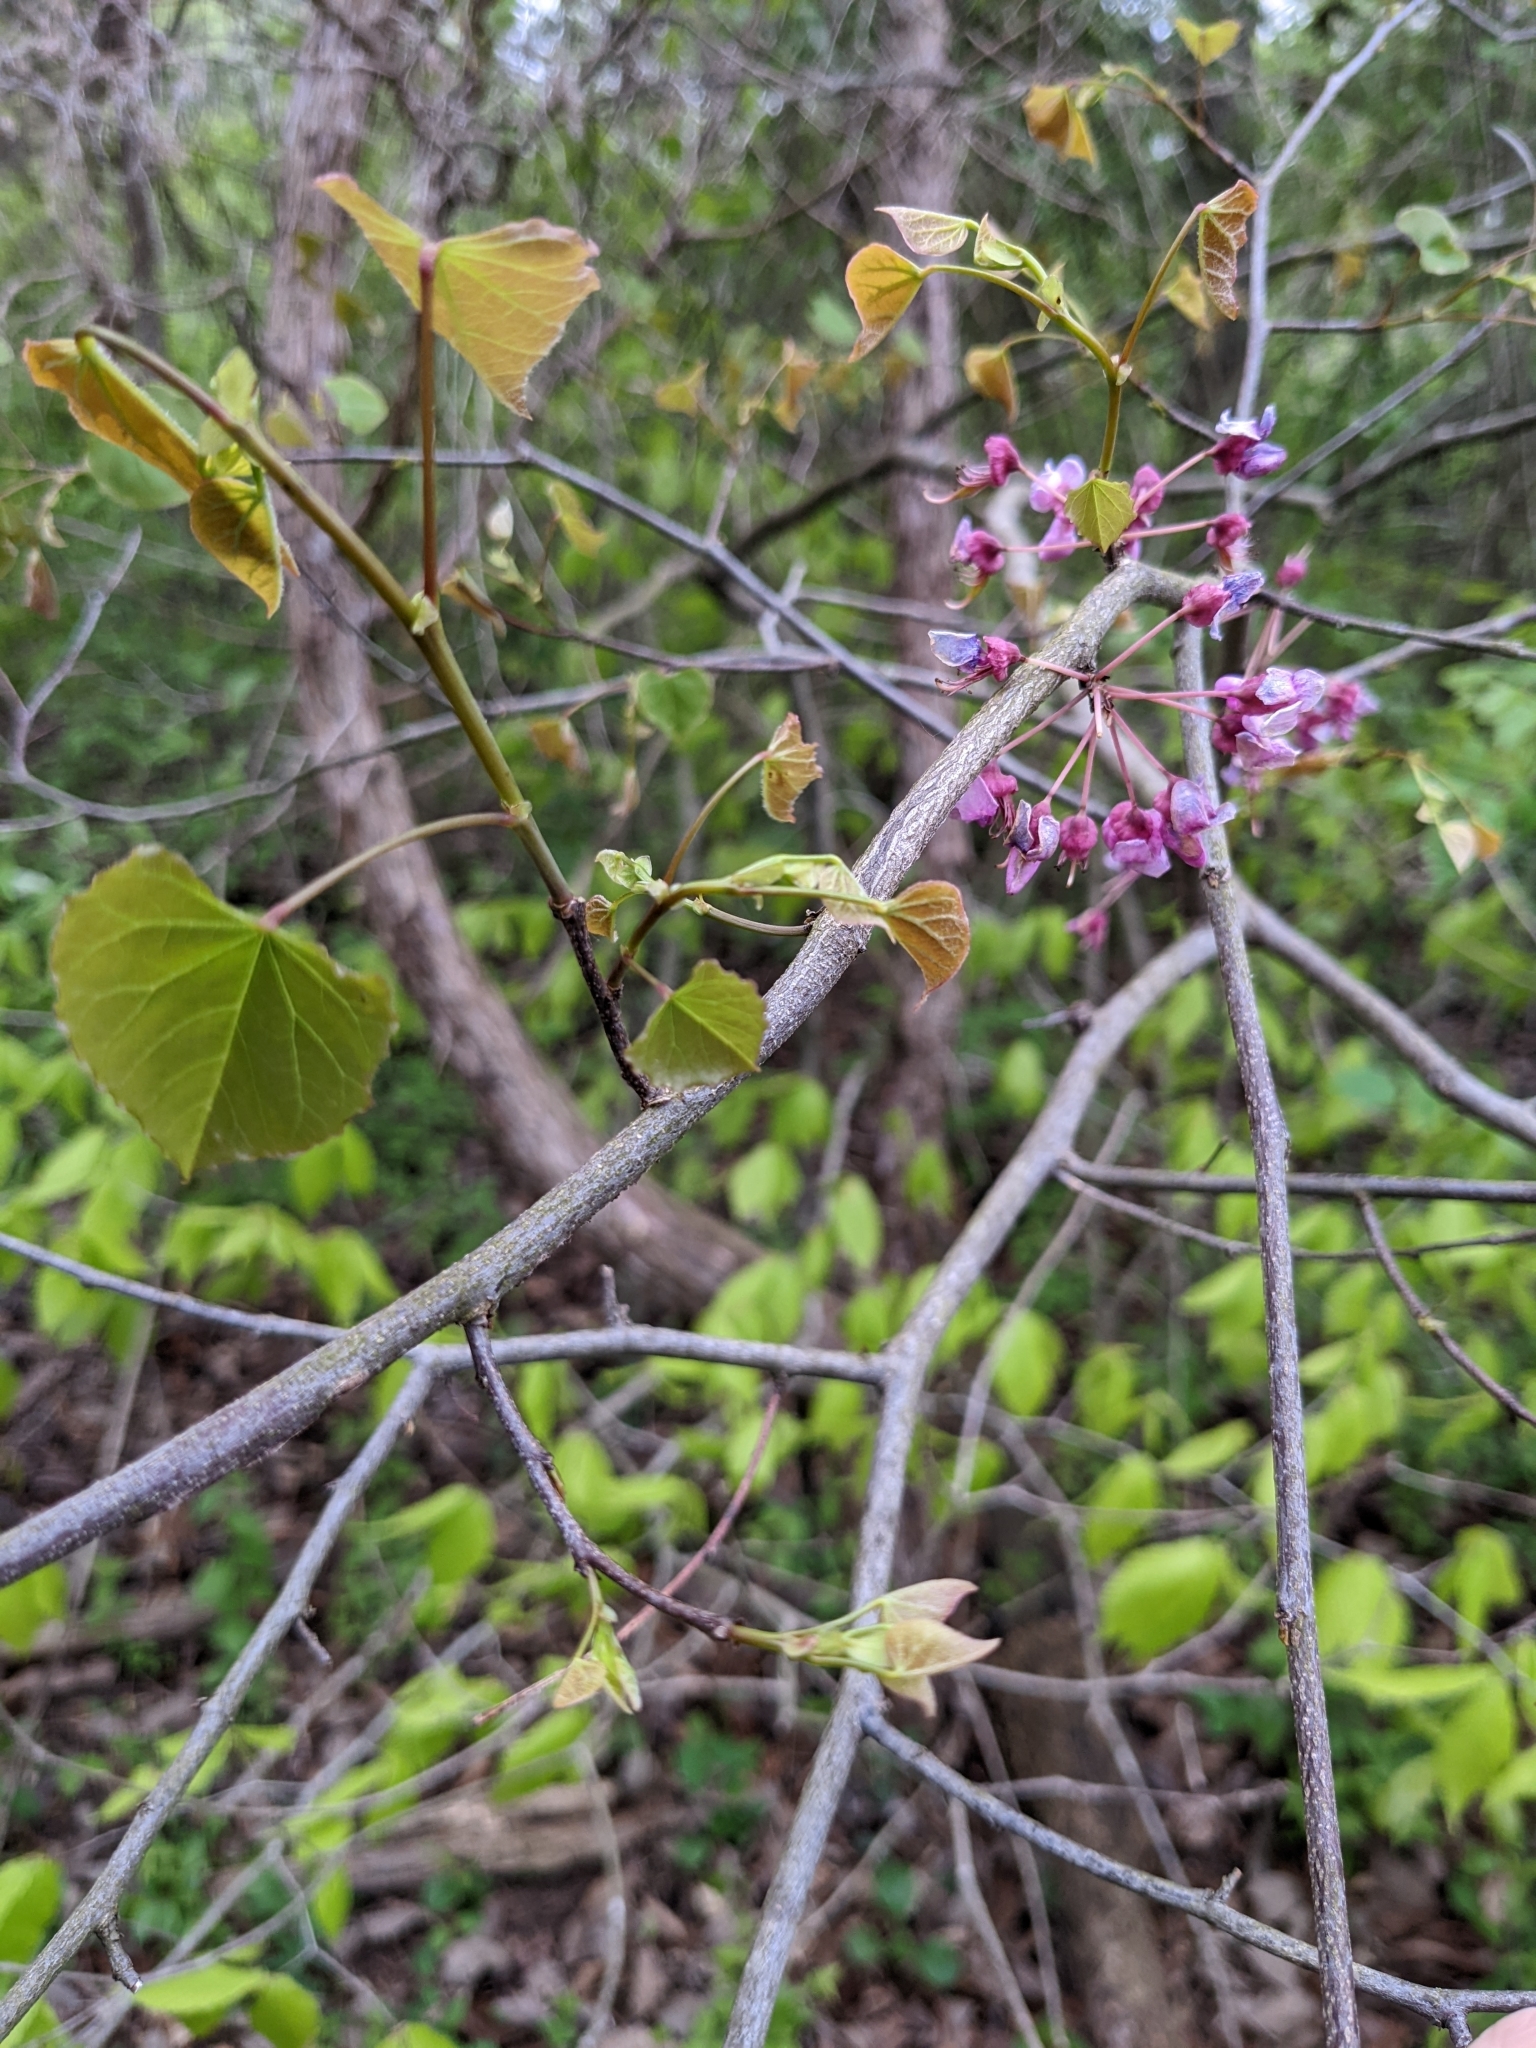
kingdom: Plantae
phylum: Tracheophyta
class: Magnoliopsida
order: Fabales
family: Fabaceae
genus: Cercis
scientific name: Cercis canadensis
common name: Eastern redbud
